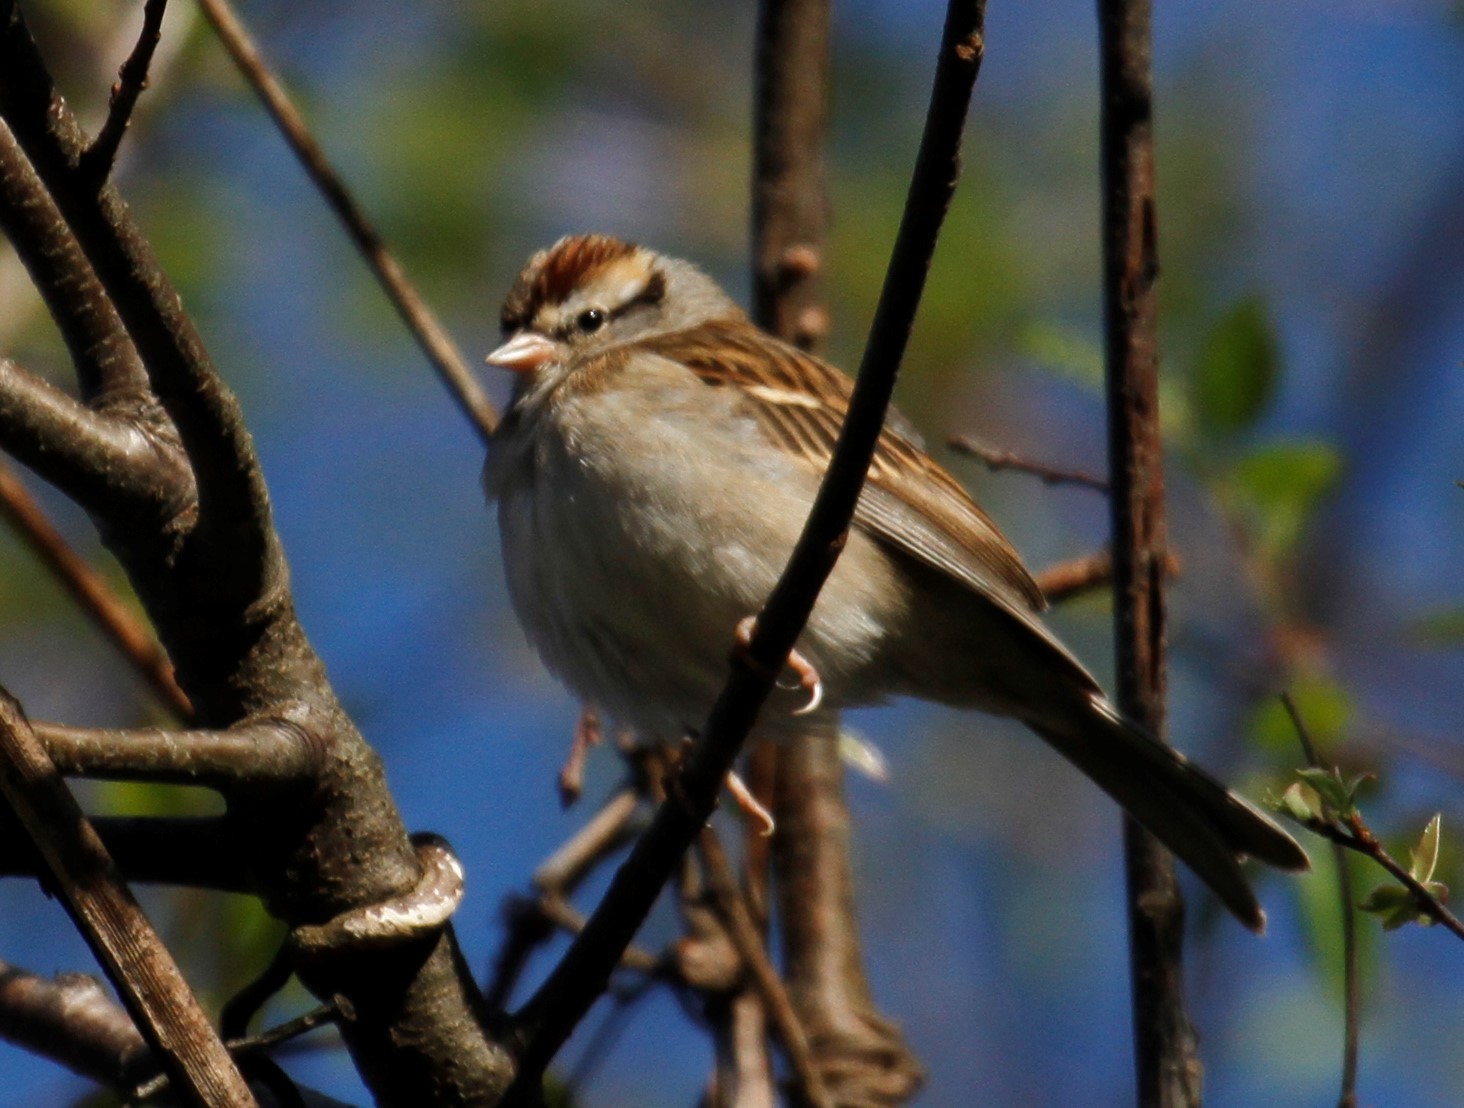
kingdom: Animalia
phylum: Chordata
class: Aves
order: Passeriformes
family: Passerellidae
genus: Spizella
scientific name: Spizella passerina
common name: Chipping sparrow
